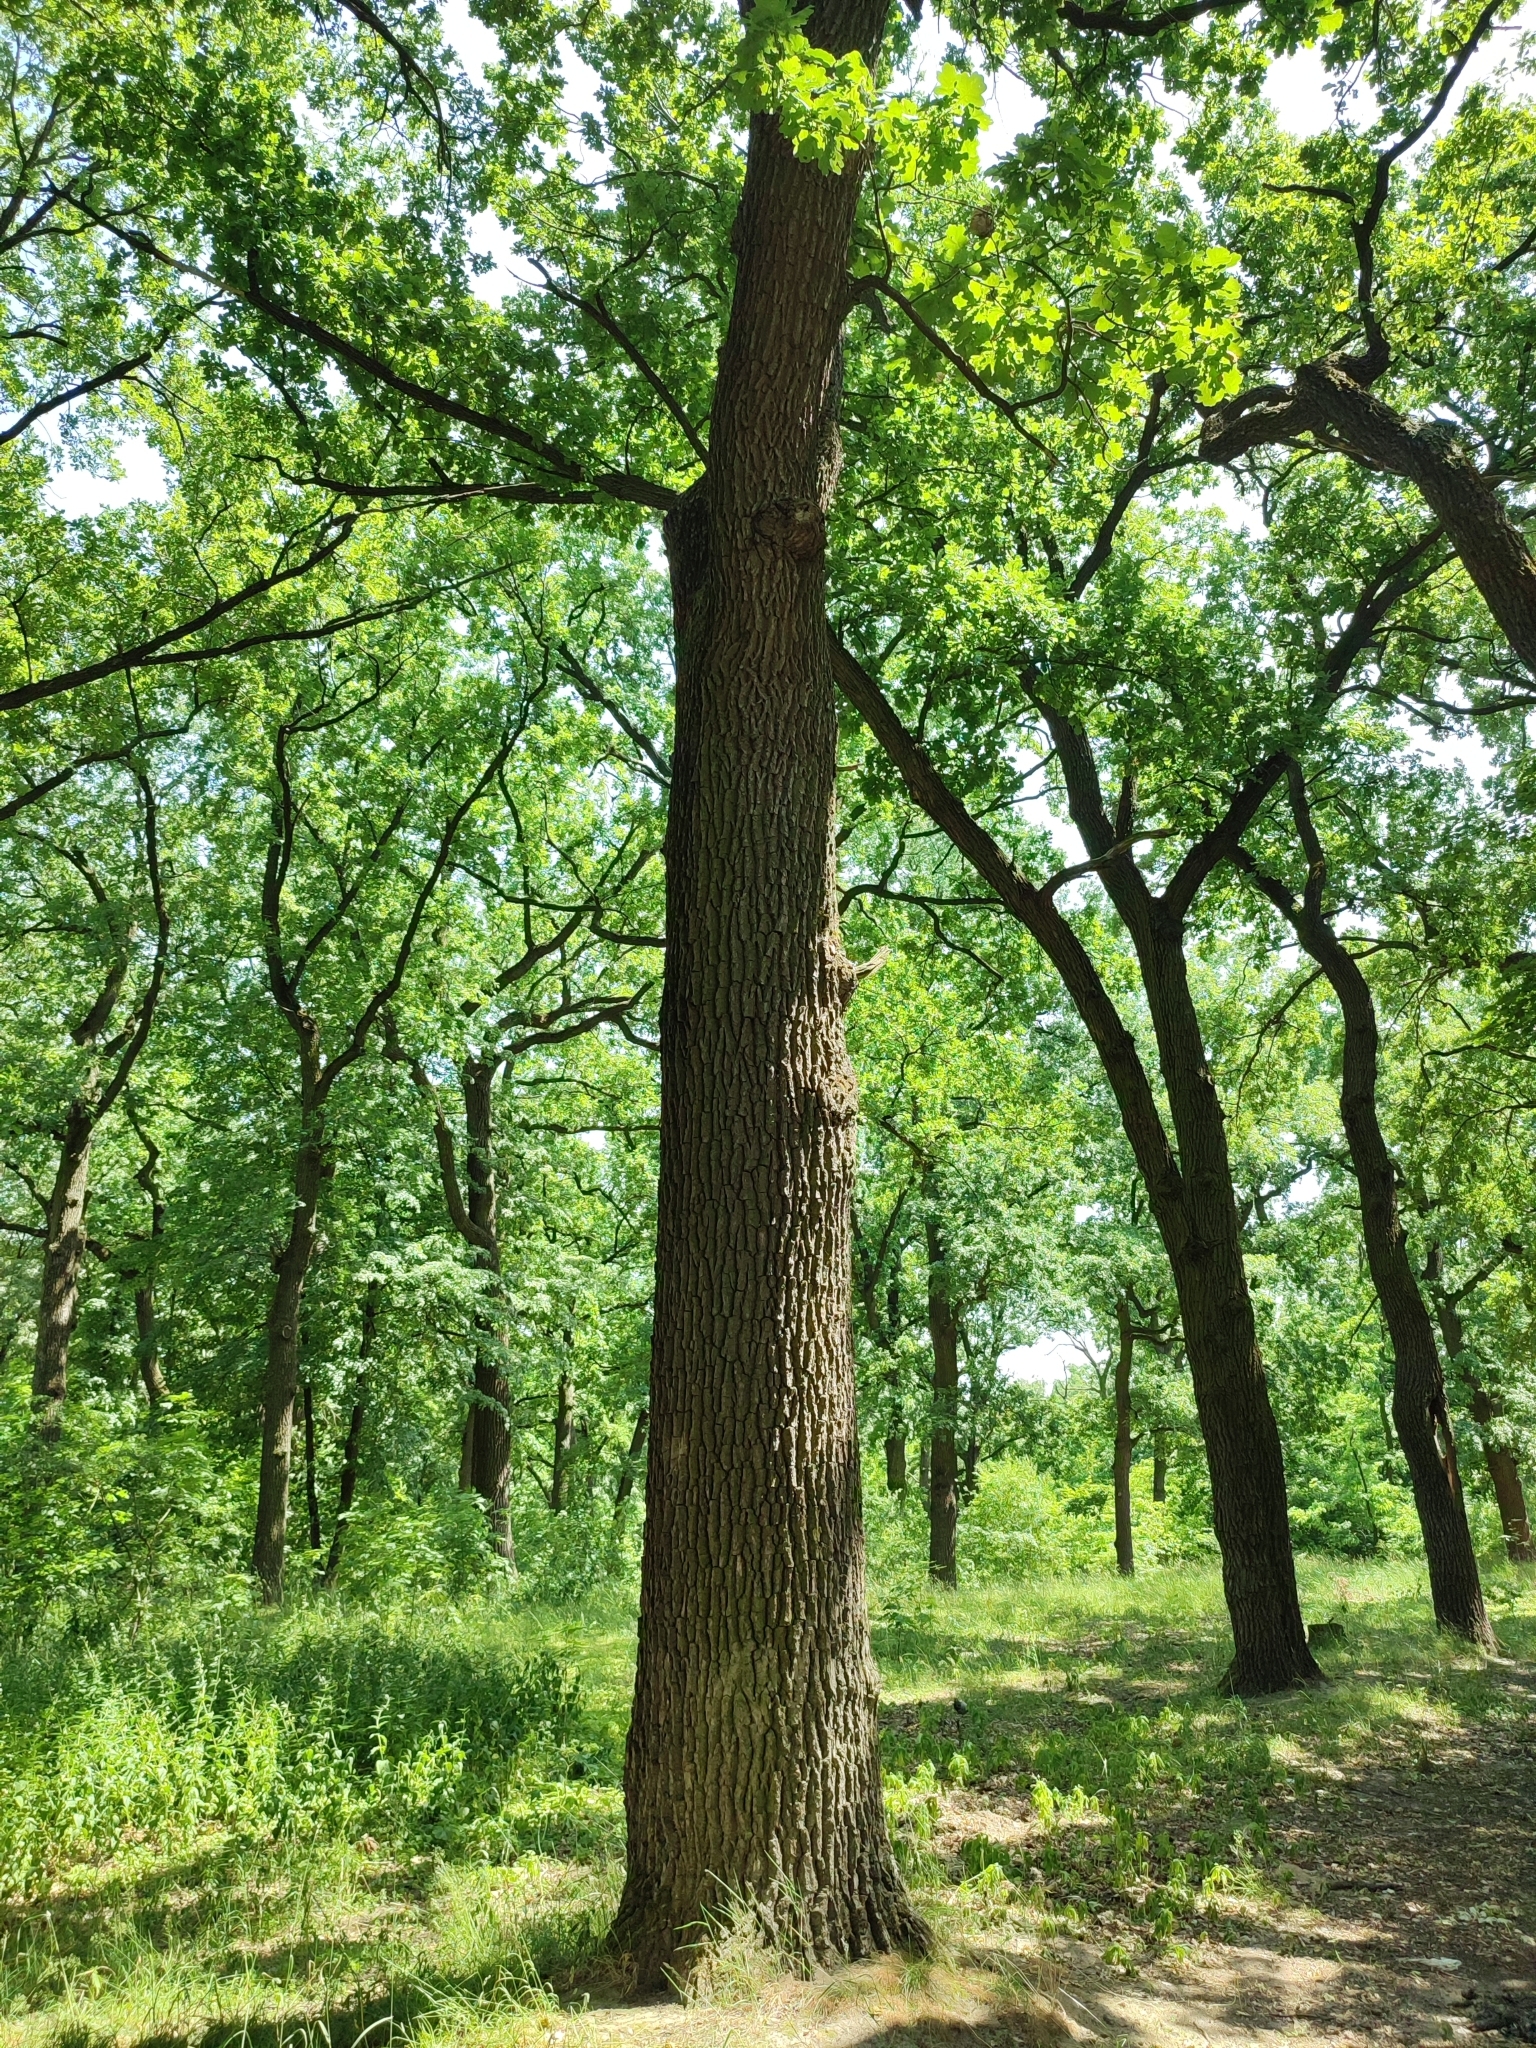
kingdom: Plantae
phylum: Tracheophyta
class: Magnoliopsida
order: Fagales
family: Fagaceae
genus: Quercus
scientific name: Quercus robur
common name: Pedunculate oak
